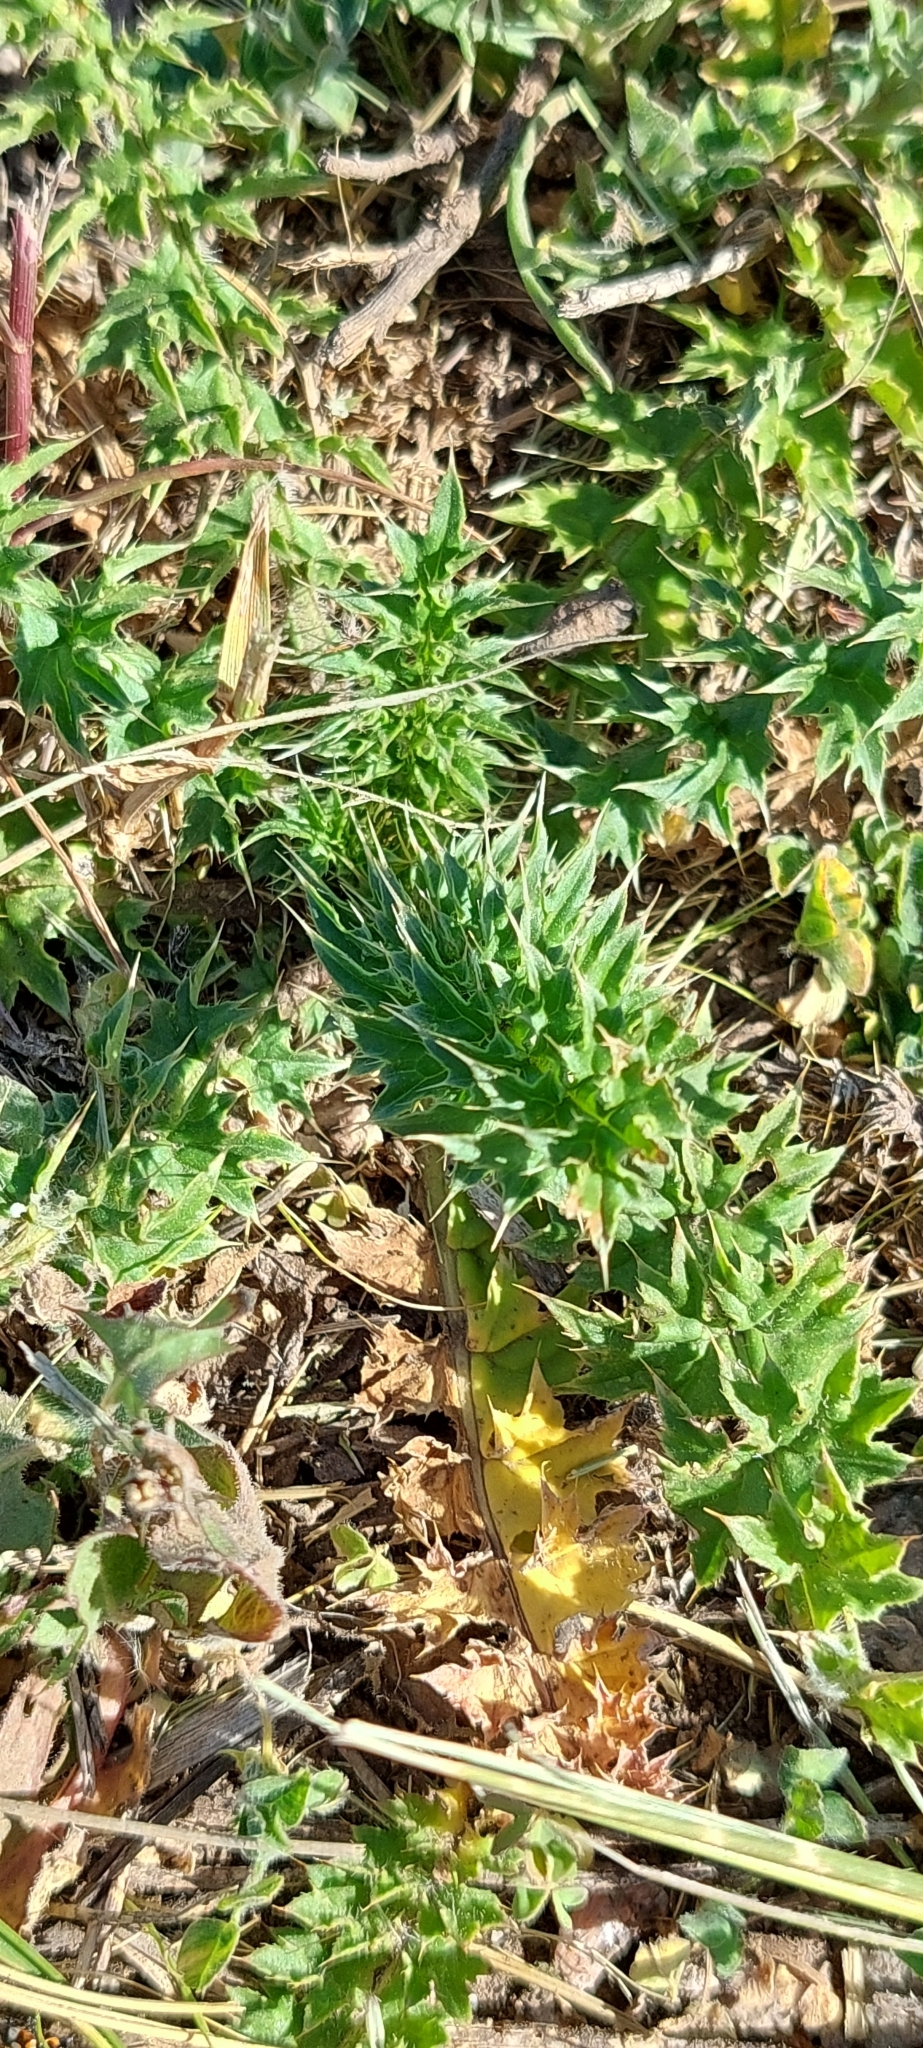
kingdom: Plantae
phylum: Tracheophyta
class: Magnoliopsida
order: Asterales
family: Asteraceae
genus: Carduus
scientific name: Carduus acanthoides
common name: Plumeless thistle
